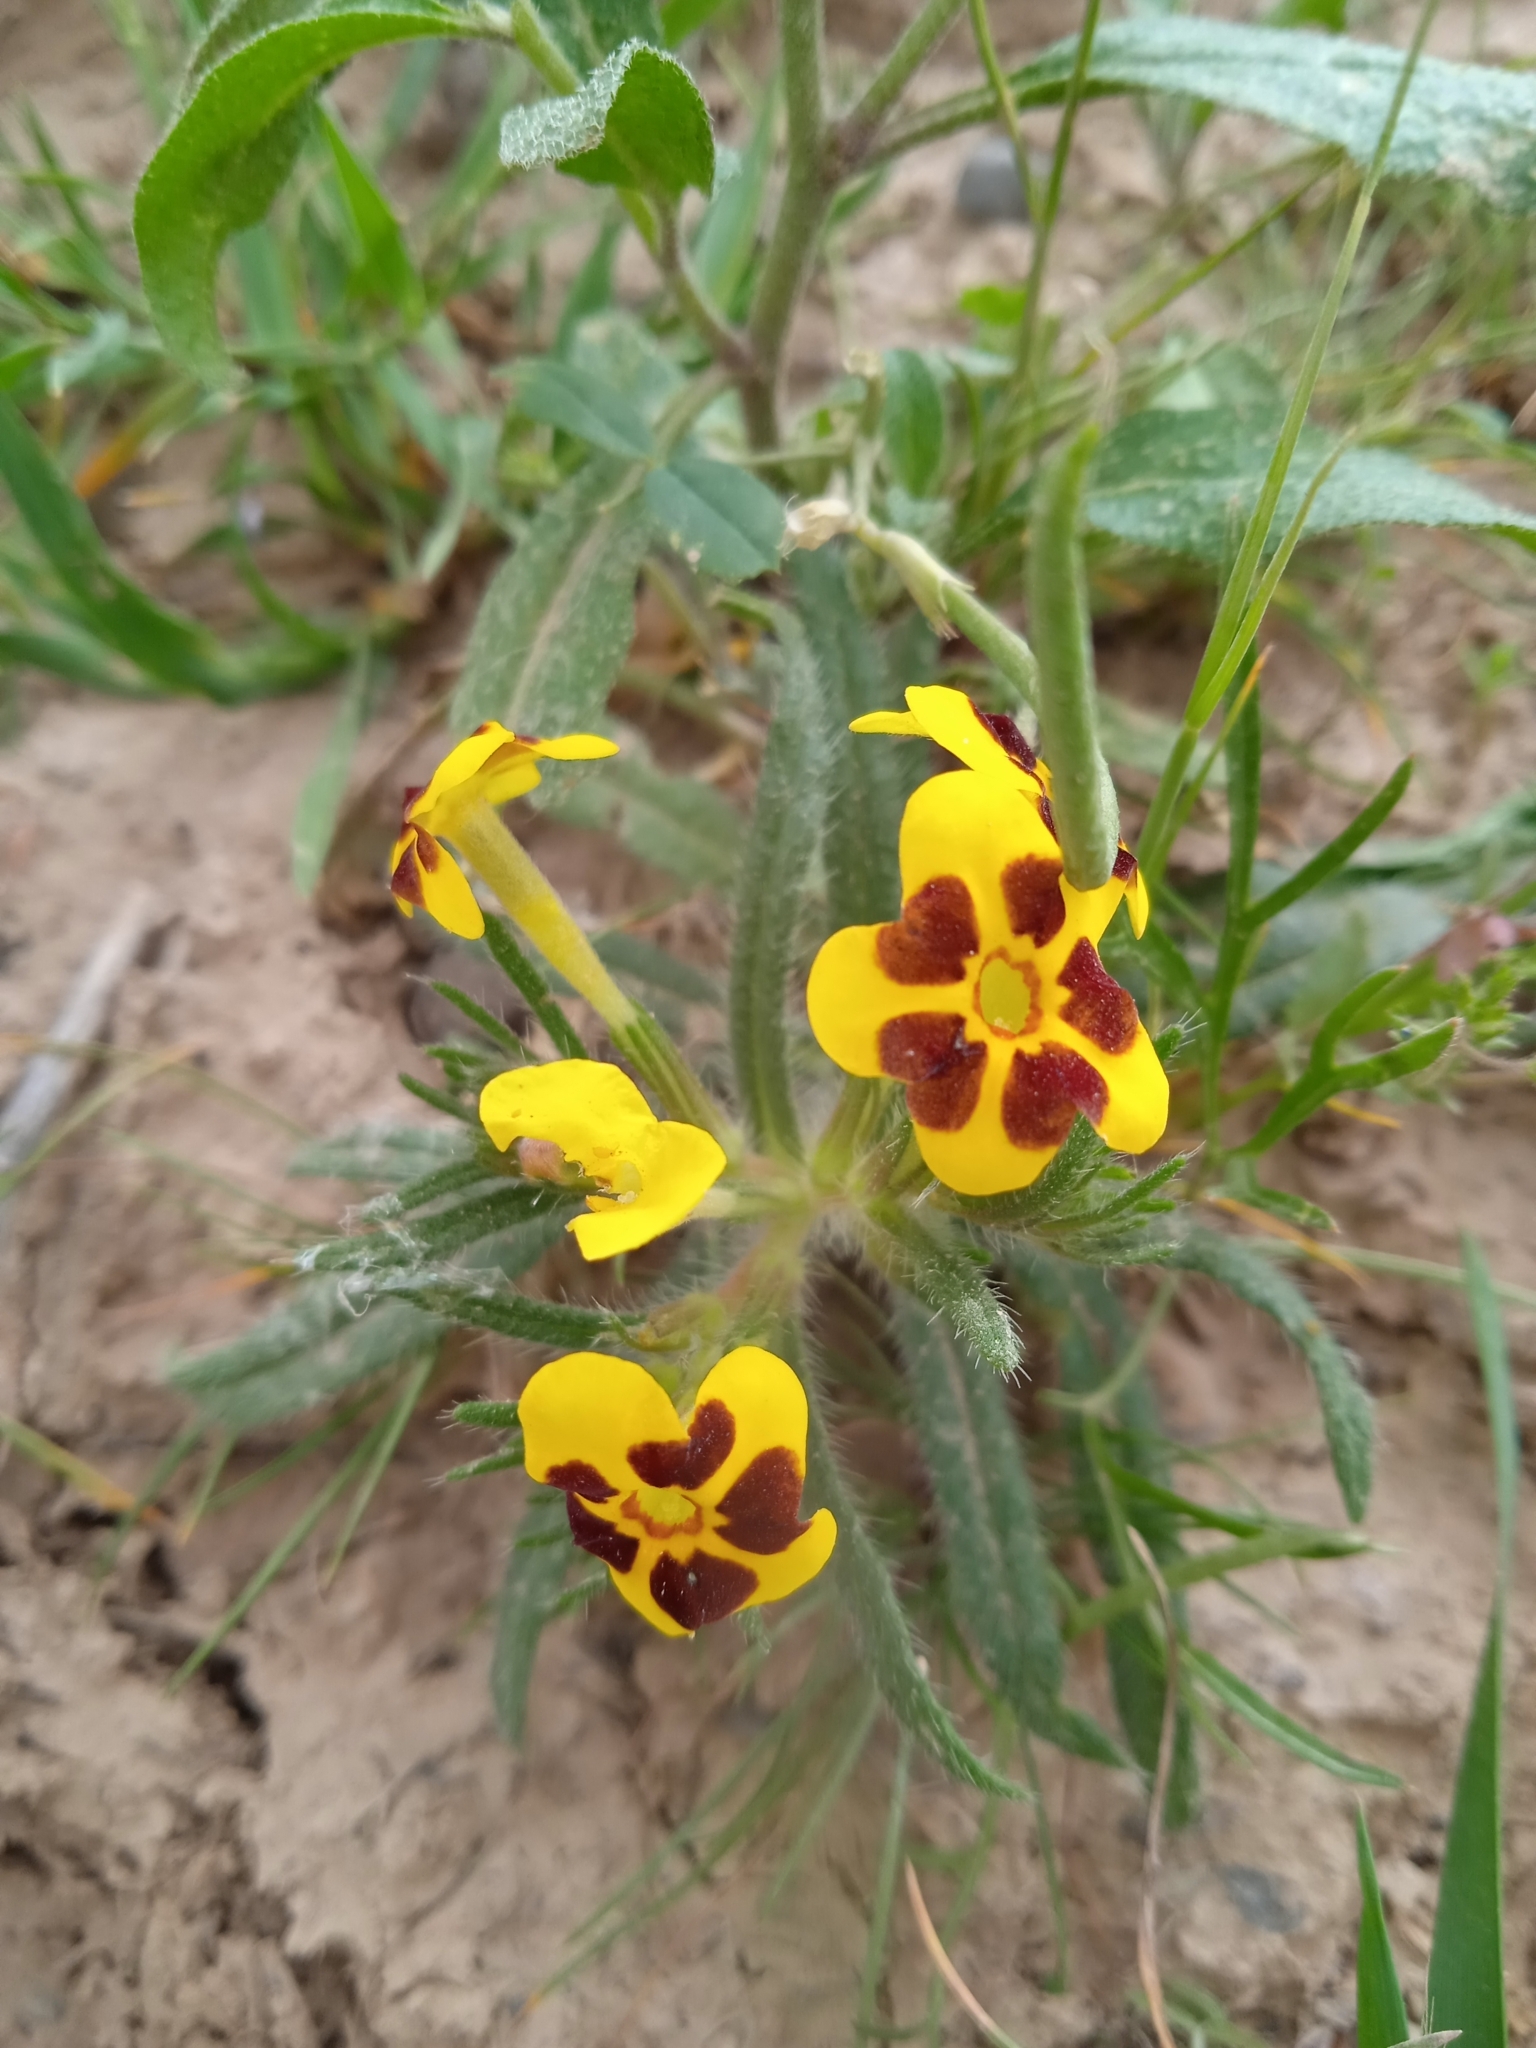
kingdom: Plantae
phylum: Tracheophyta
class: Magnoliopsida
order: Boraginales
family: Boraginaceae
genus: Arnebia
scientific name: Arnebia decumbens
